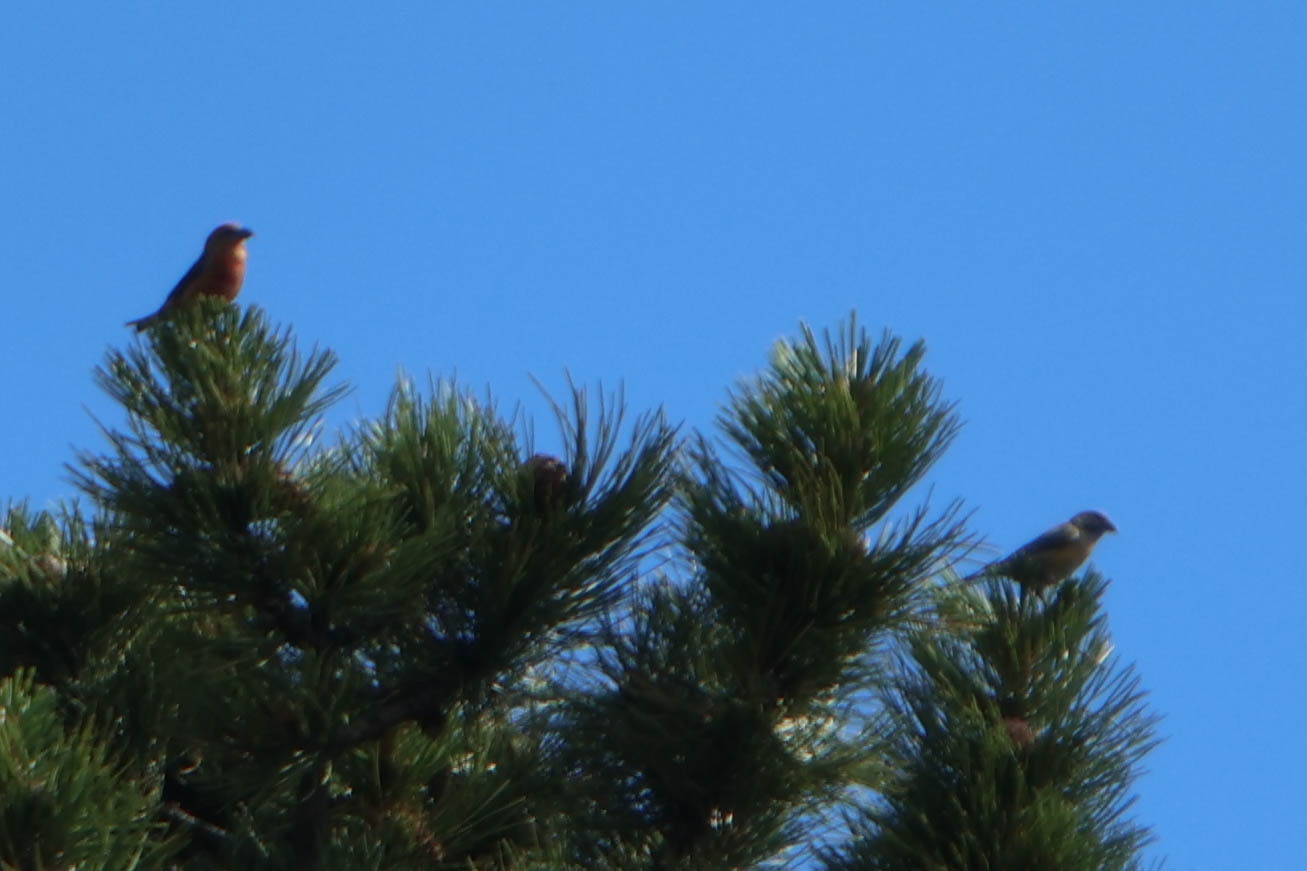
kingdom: Animalia
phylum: Chordata
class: Aves
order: Passeriformes
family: Fringillidae
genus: Loxia
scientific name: Loxia curvirostra
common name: Red crossbill
